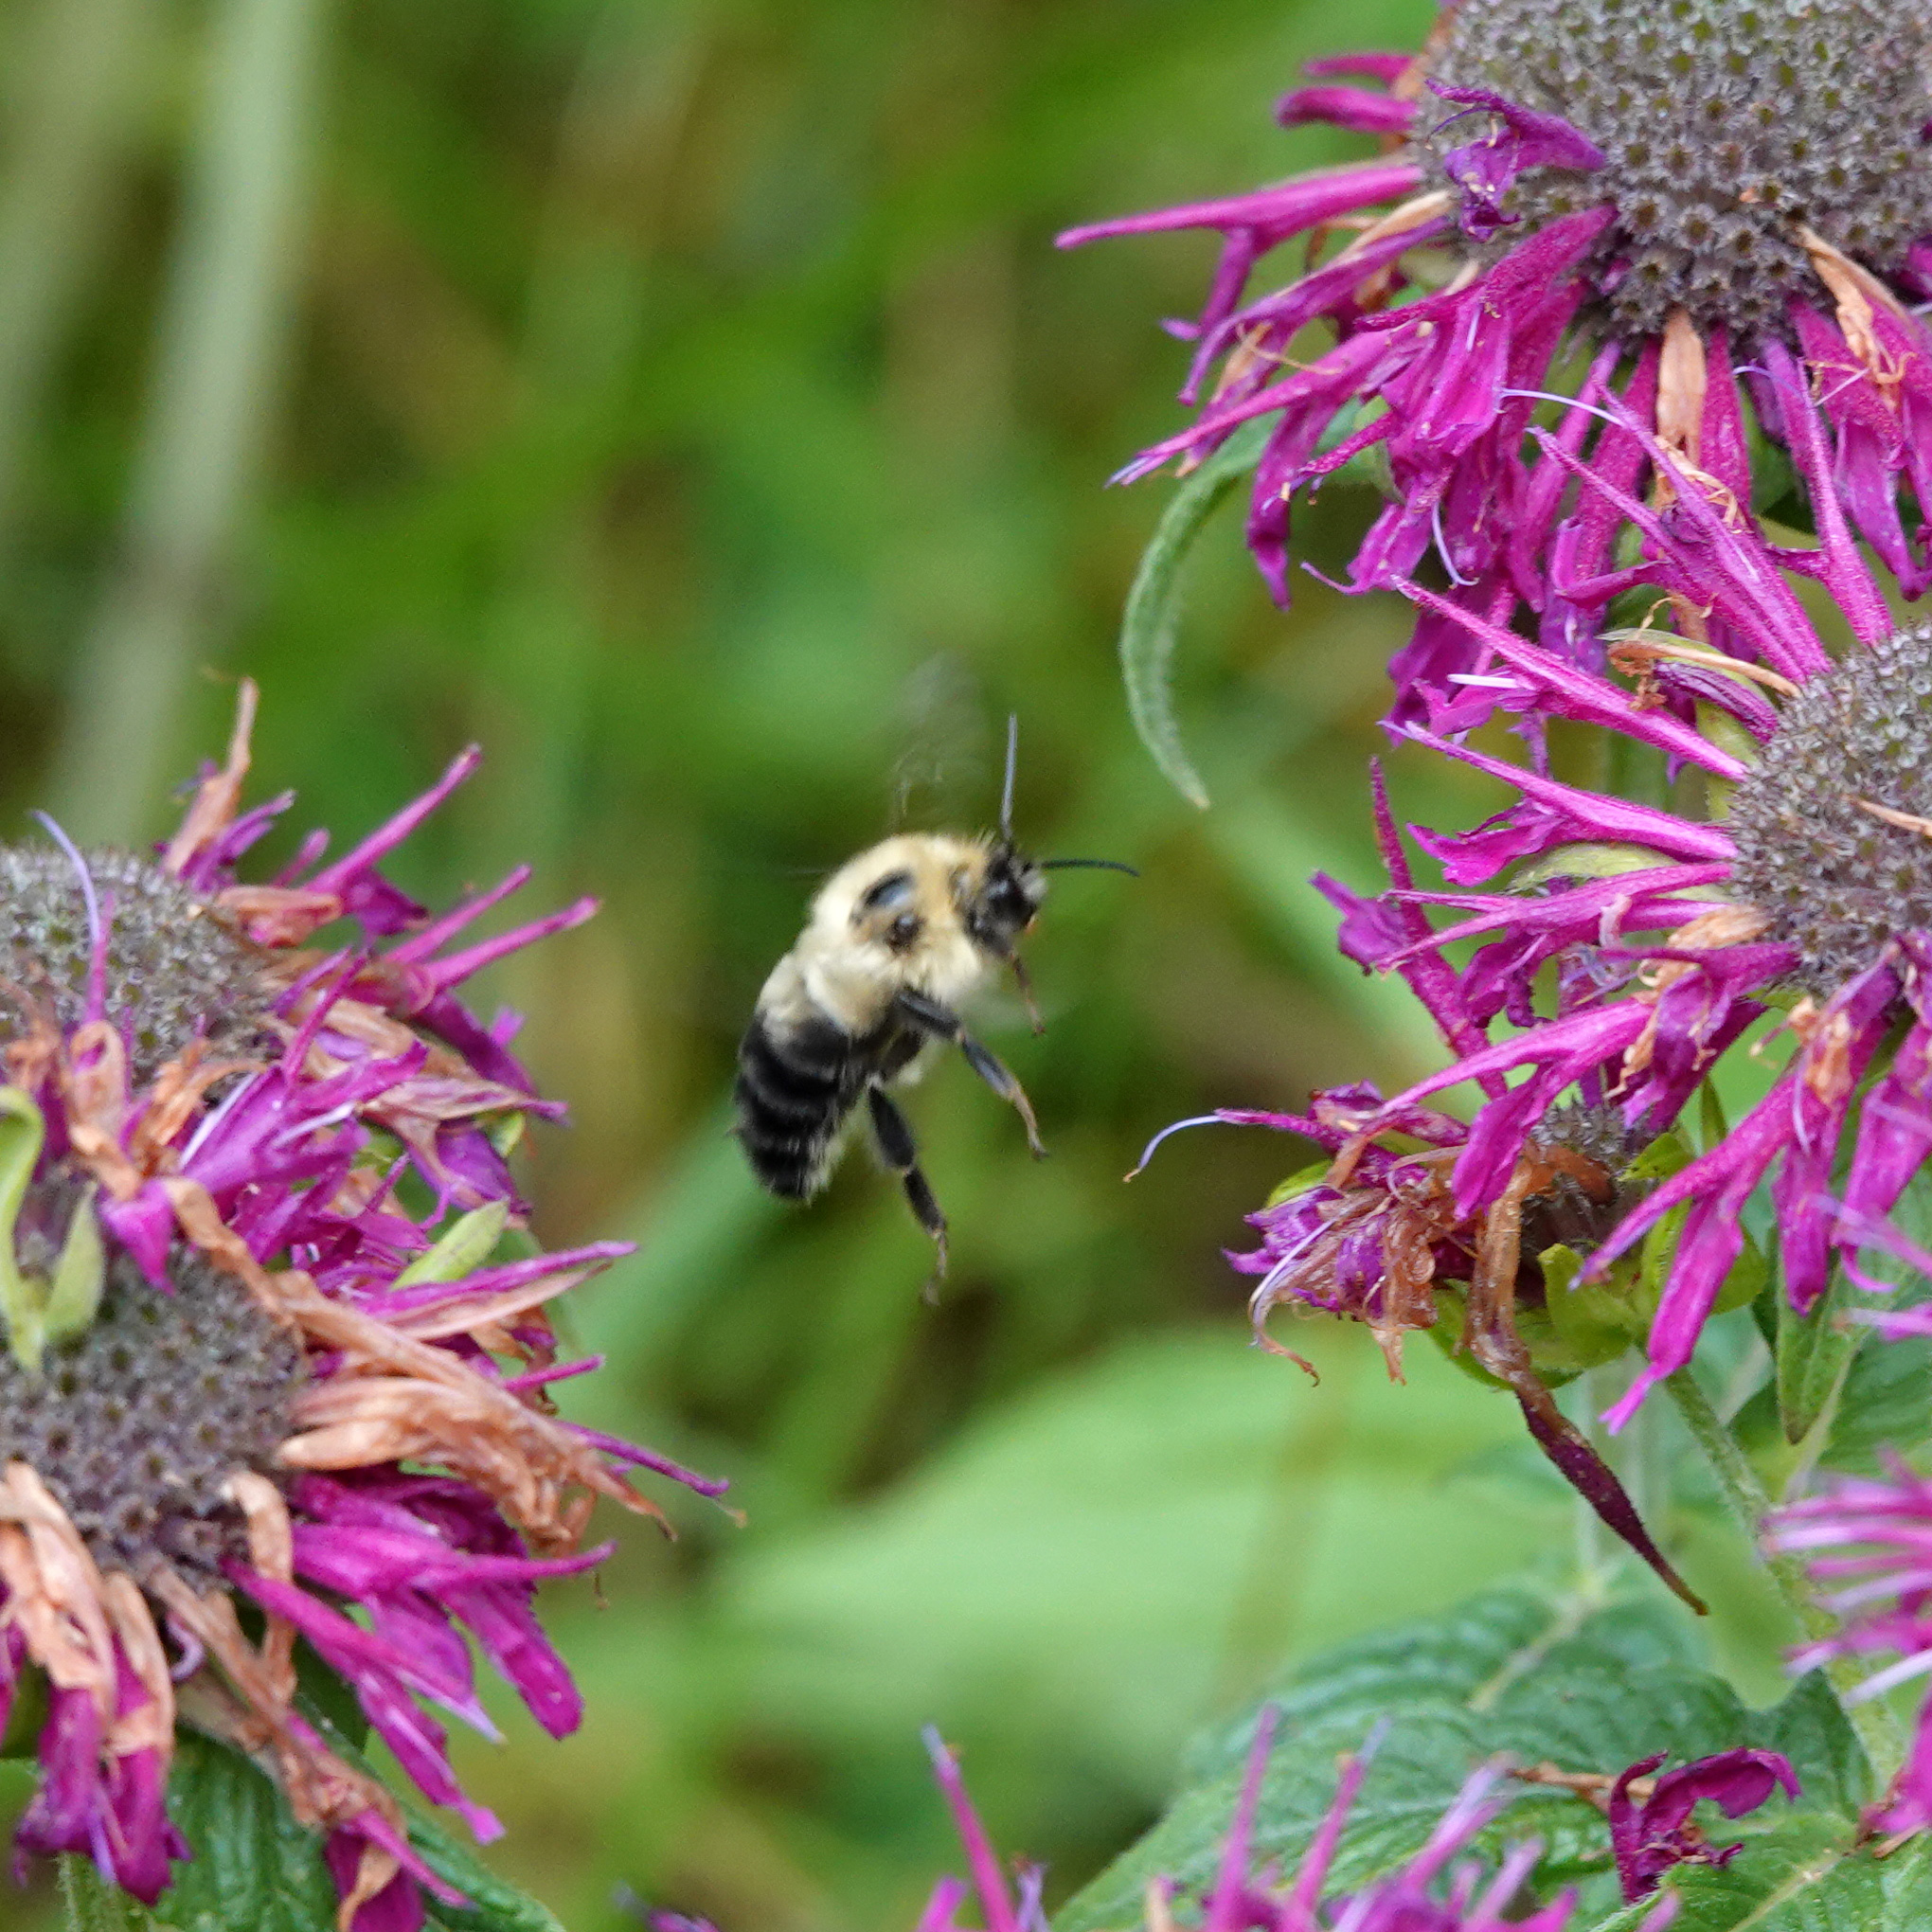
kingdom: Animalia
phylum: Arthropoda
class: Insecta
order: Hymenoptera
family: Apidae
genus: Bombus
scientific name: Bombus bimaculatus
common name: Two-spotted bumble bee
